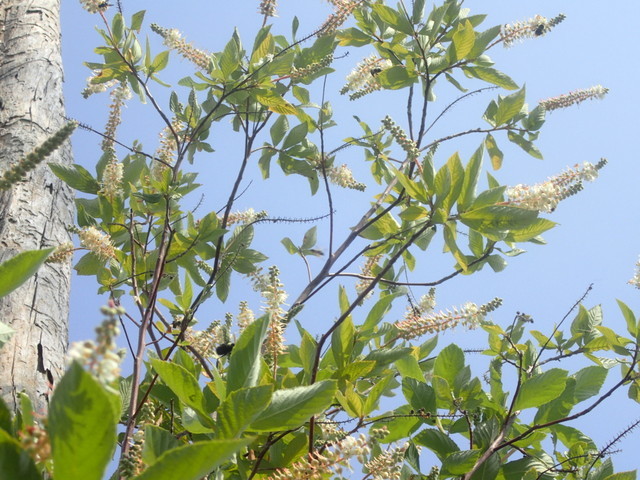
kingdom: Plantae
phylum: Tracheophyta
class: Magnoliopsida
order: Ericales
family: Clethraceae
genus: Clethra
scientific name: Clethra alnifolia
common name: Sweet pepperbush
